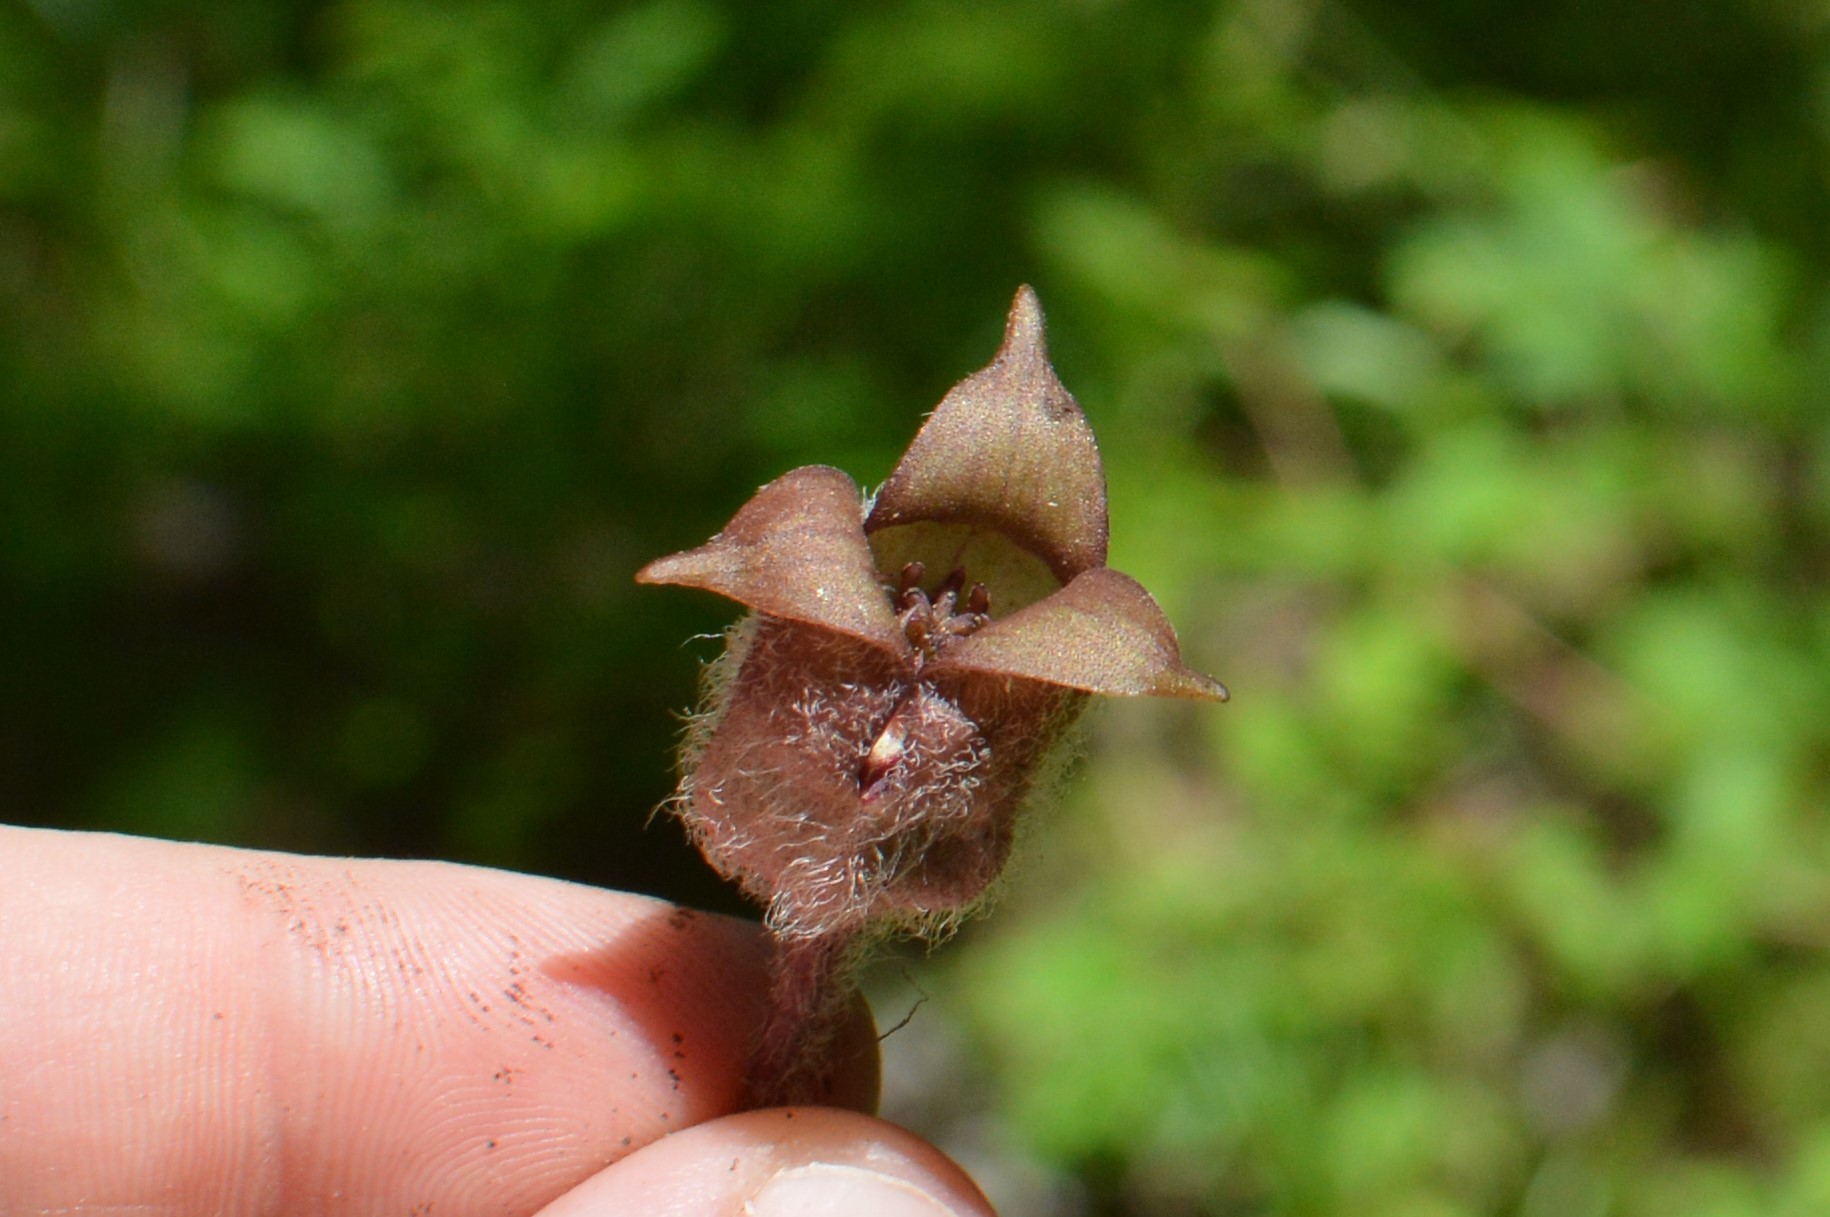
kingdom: Plantae
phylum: Tracheophyta
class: Magnoliopsida
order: Piperales
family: Aristolochiaceae
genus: Asarum
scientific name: Asarum canadense
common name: Wild ginger
